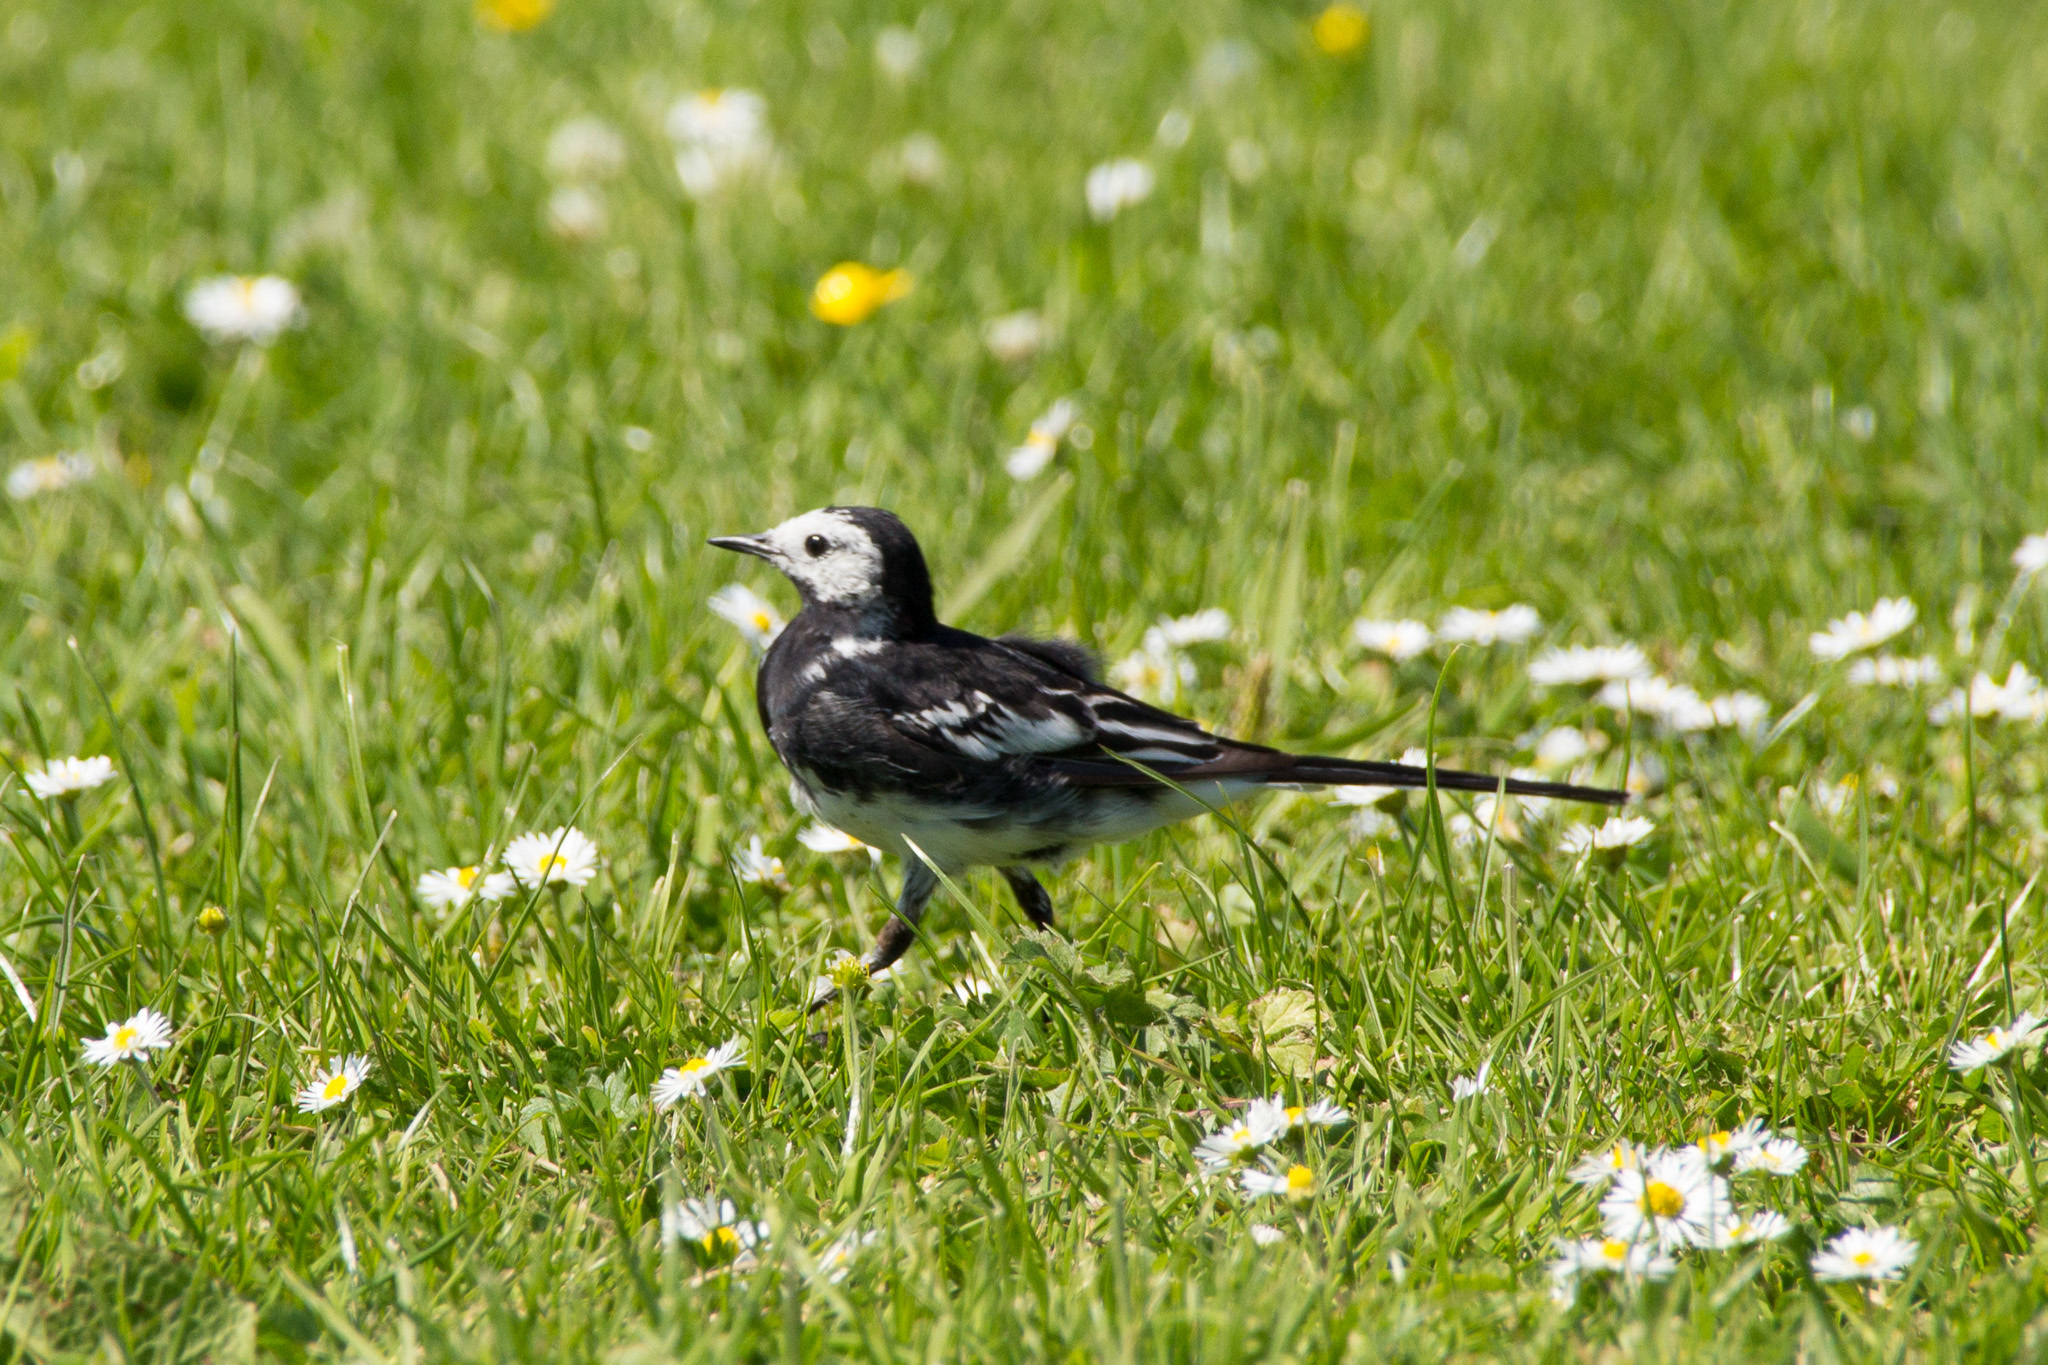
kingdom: Animalia
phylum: Chordata
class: Aves
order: Passeriformes
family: Motacillidae
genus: Motacilla
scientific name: Motacilla alba
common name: White wagtail
